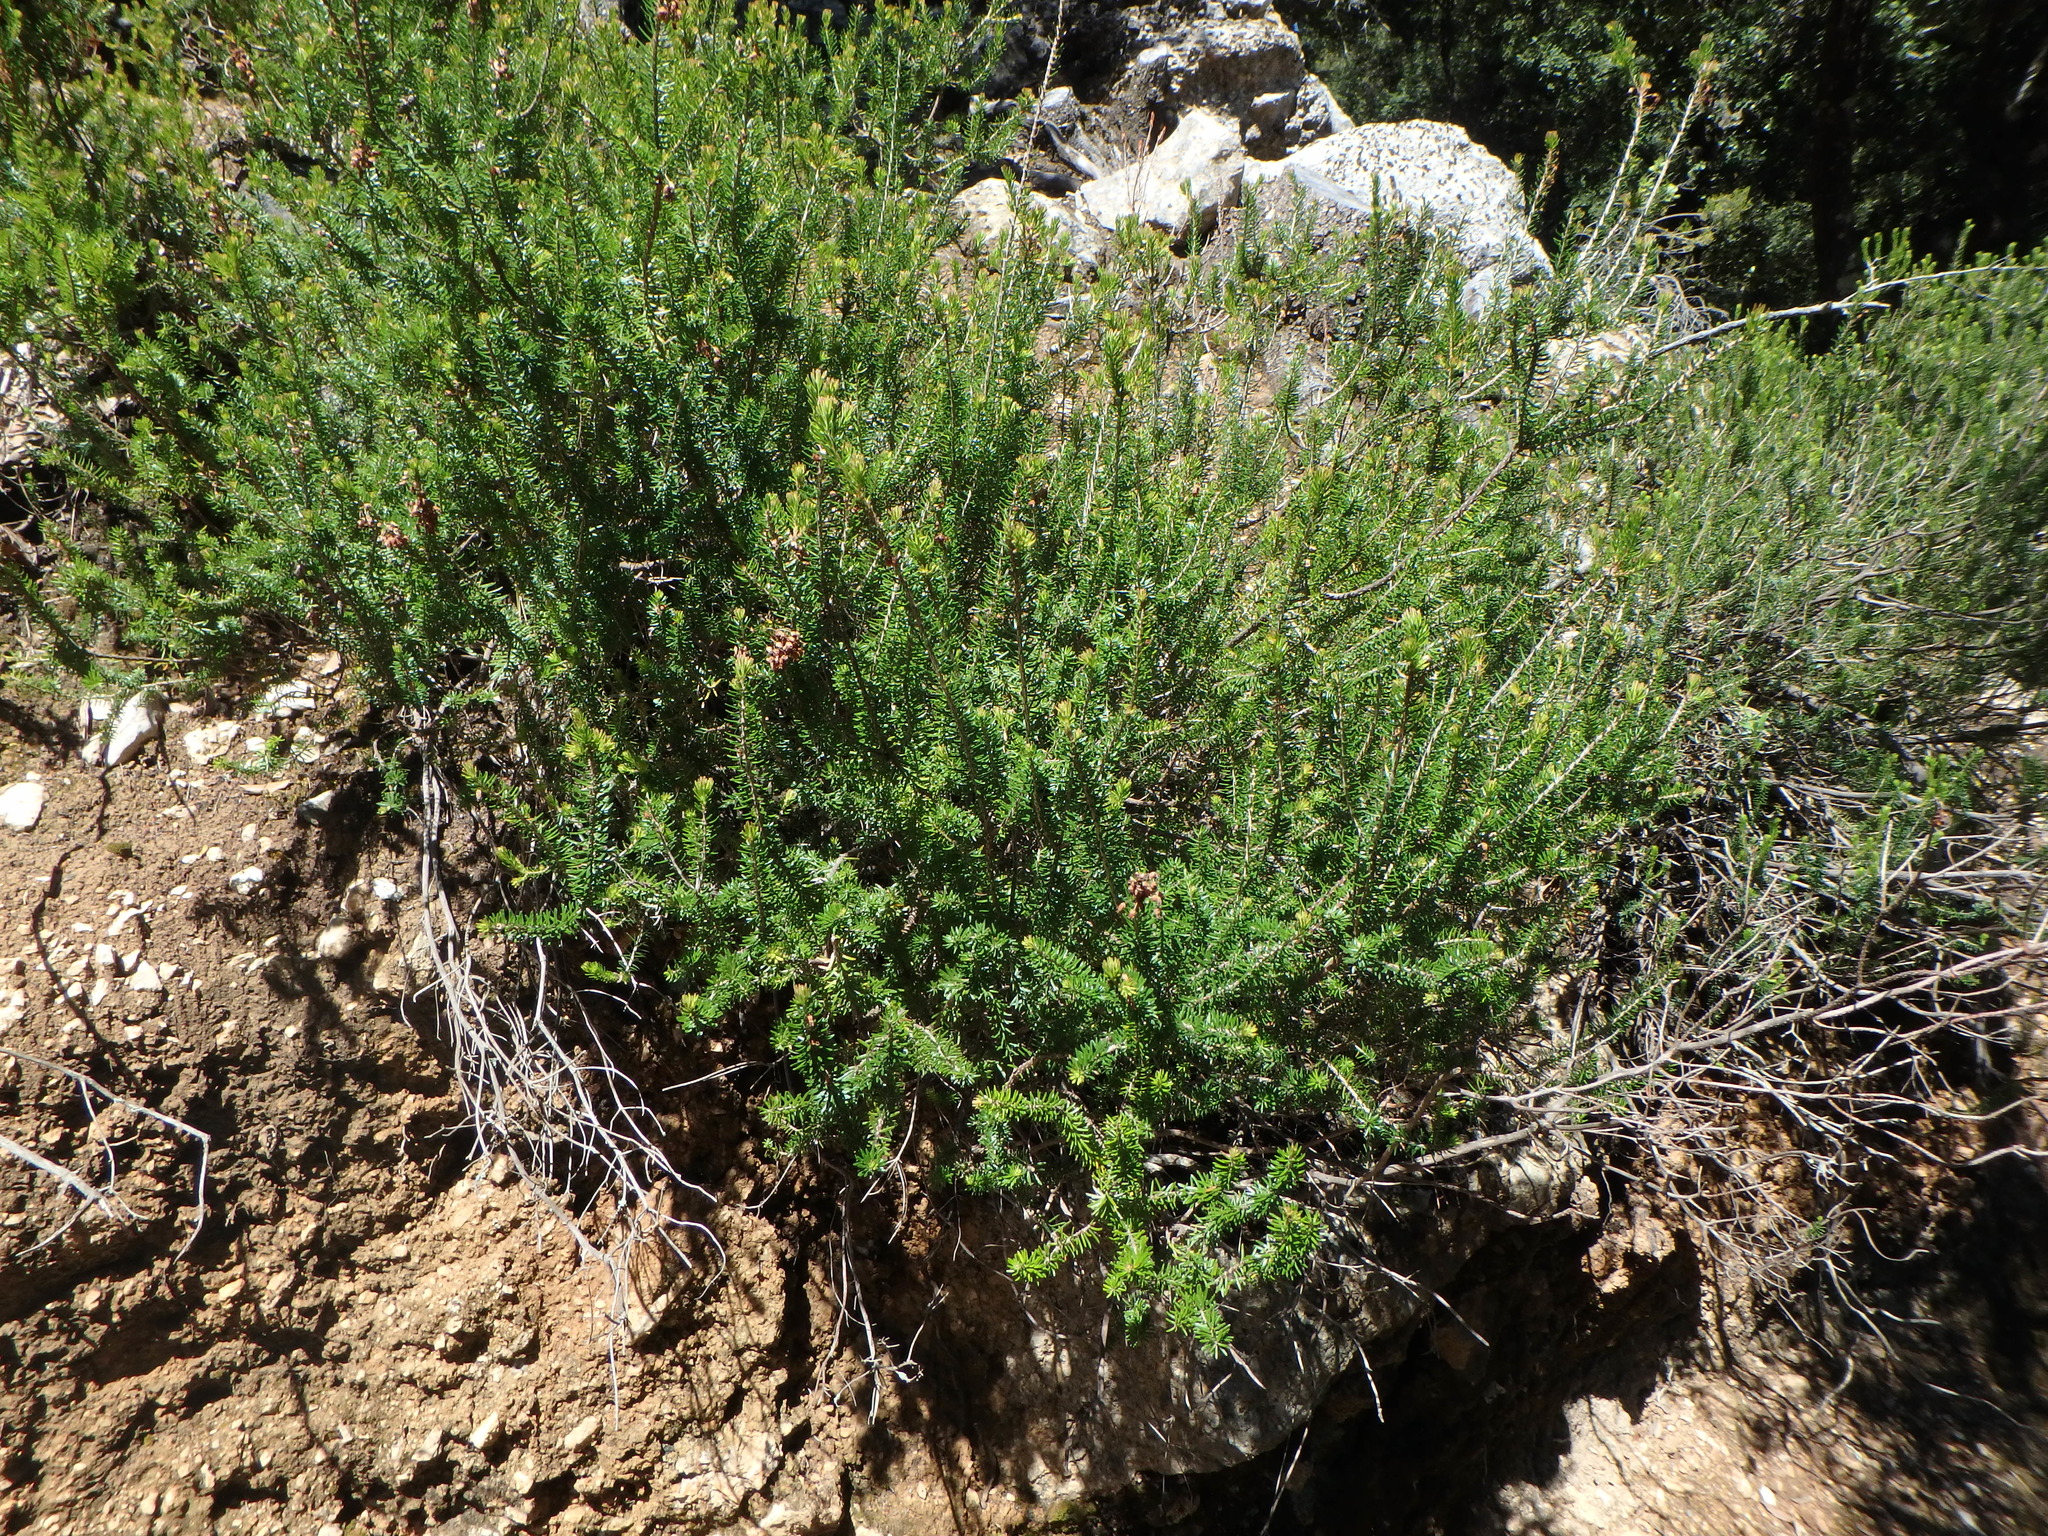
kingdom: Plantae
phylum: Tracheophyta
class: Magnoliopsida
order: Ericales
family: Ericaceae
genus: Erica
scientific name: Erica multiflora
